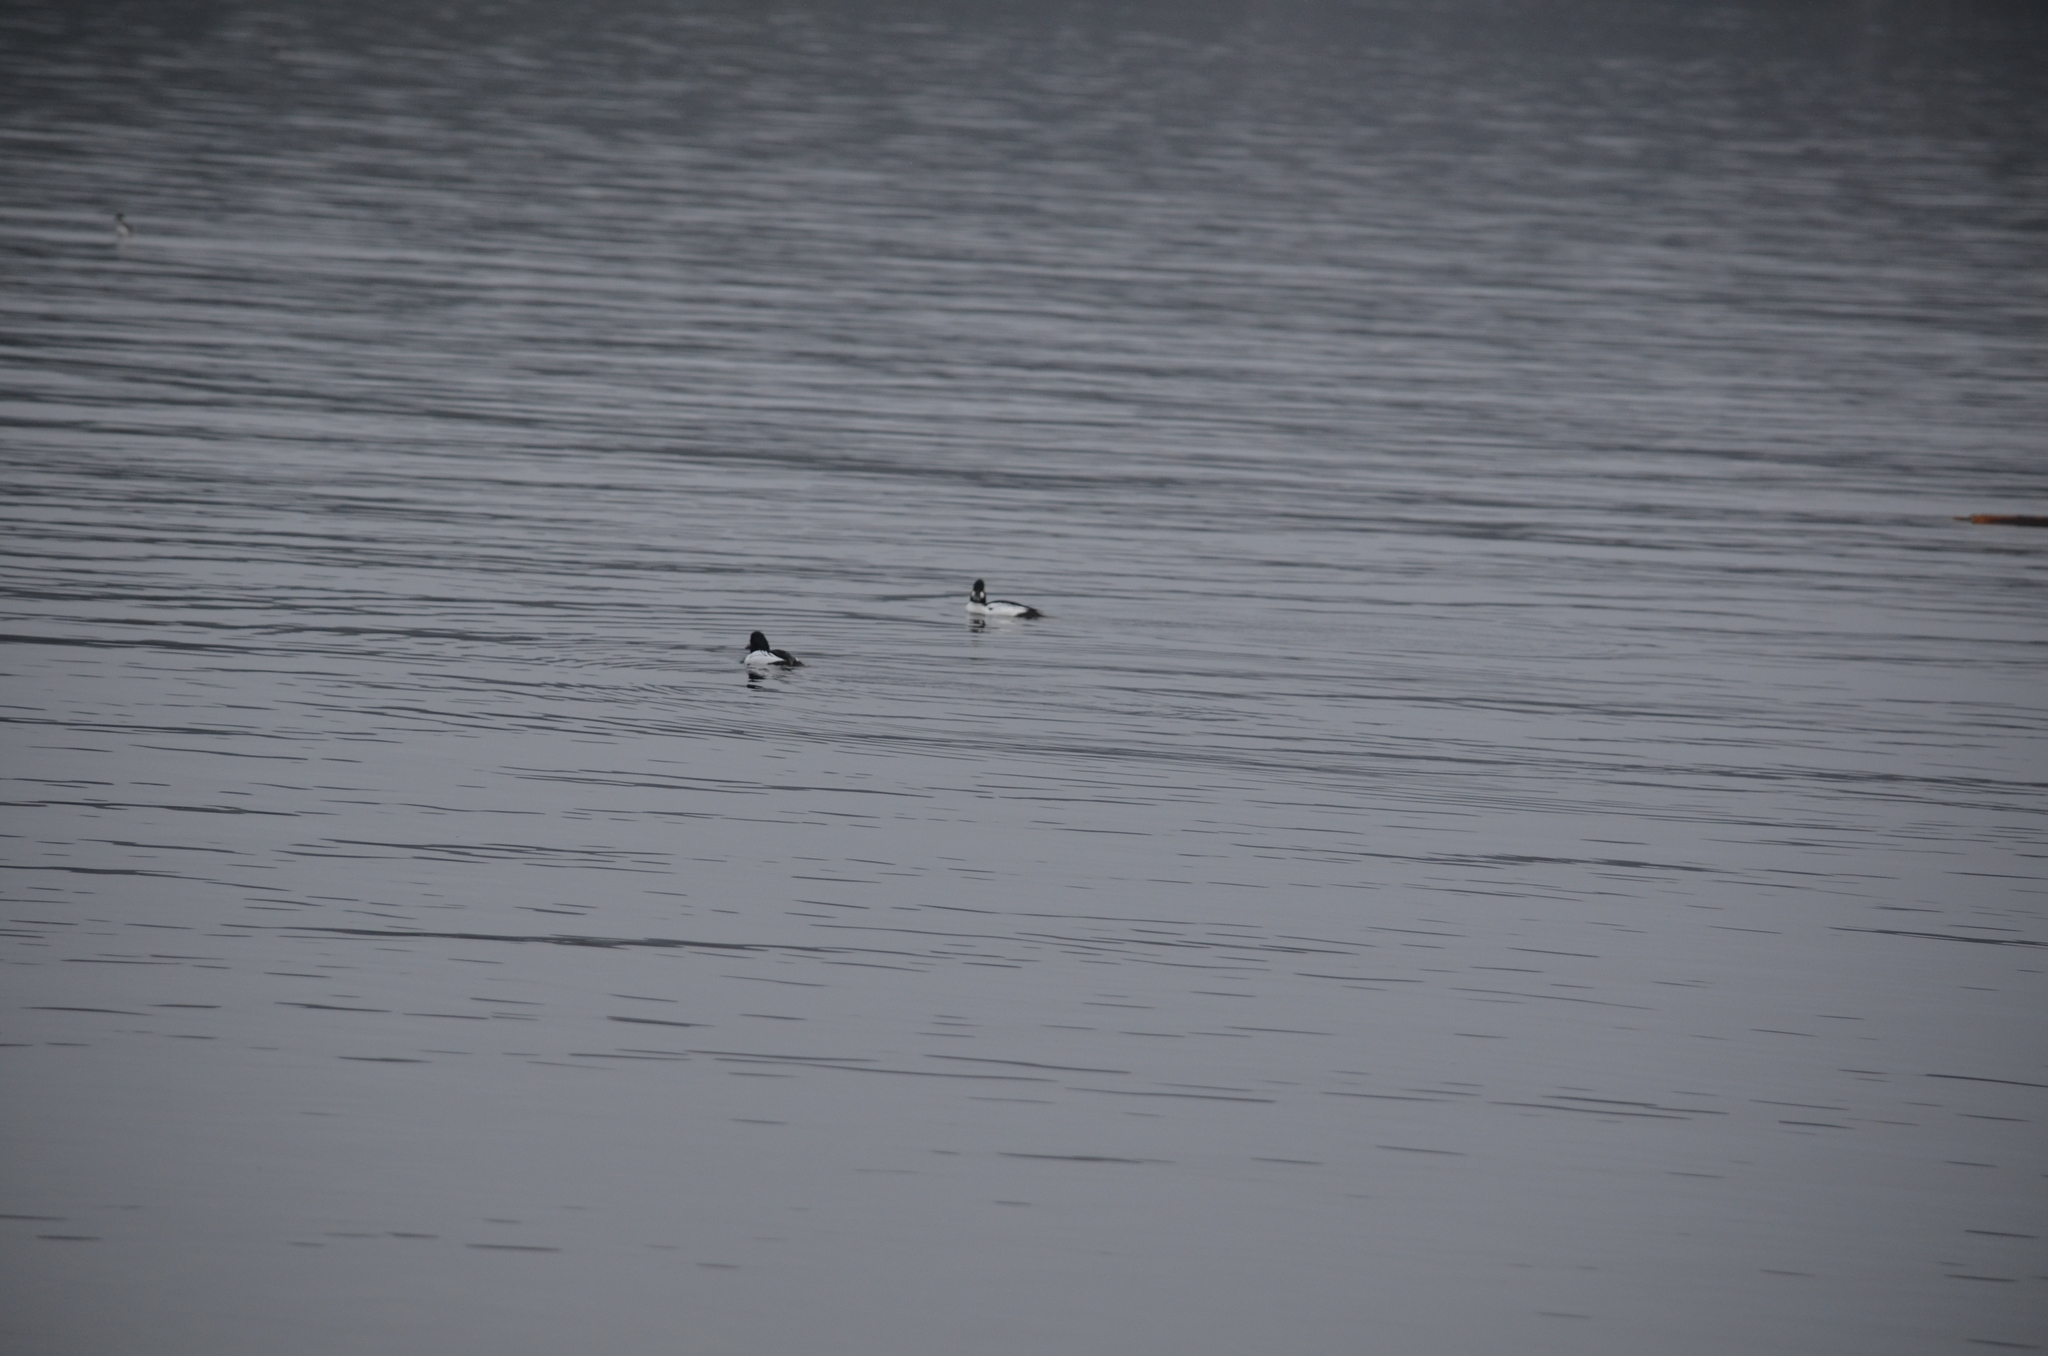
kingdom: Animalia
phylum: Chordata
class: Aves
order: Anseriformes
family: Anatidae
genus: Bucephala
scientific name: Bucephala clangula
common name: Common goldeneye
